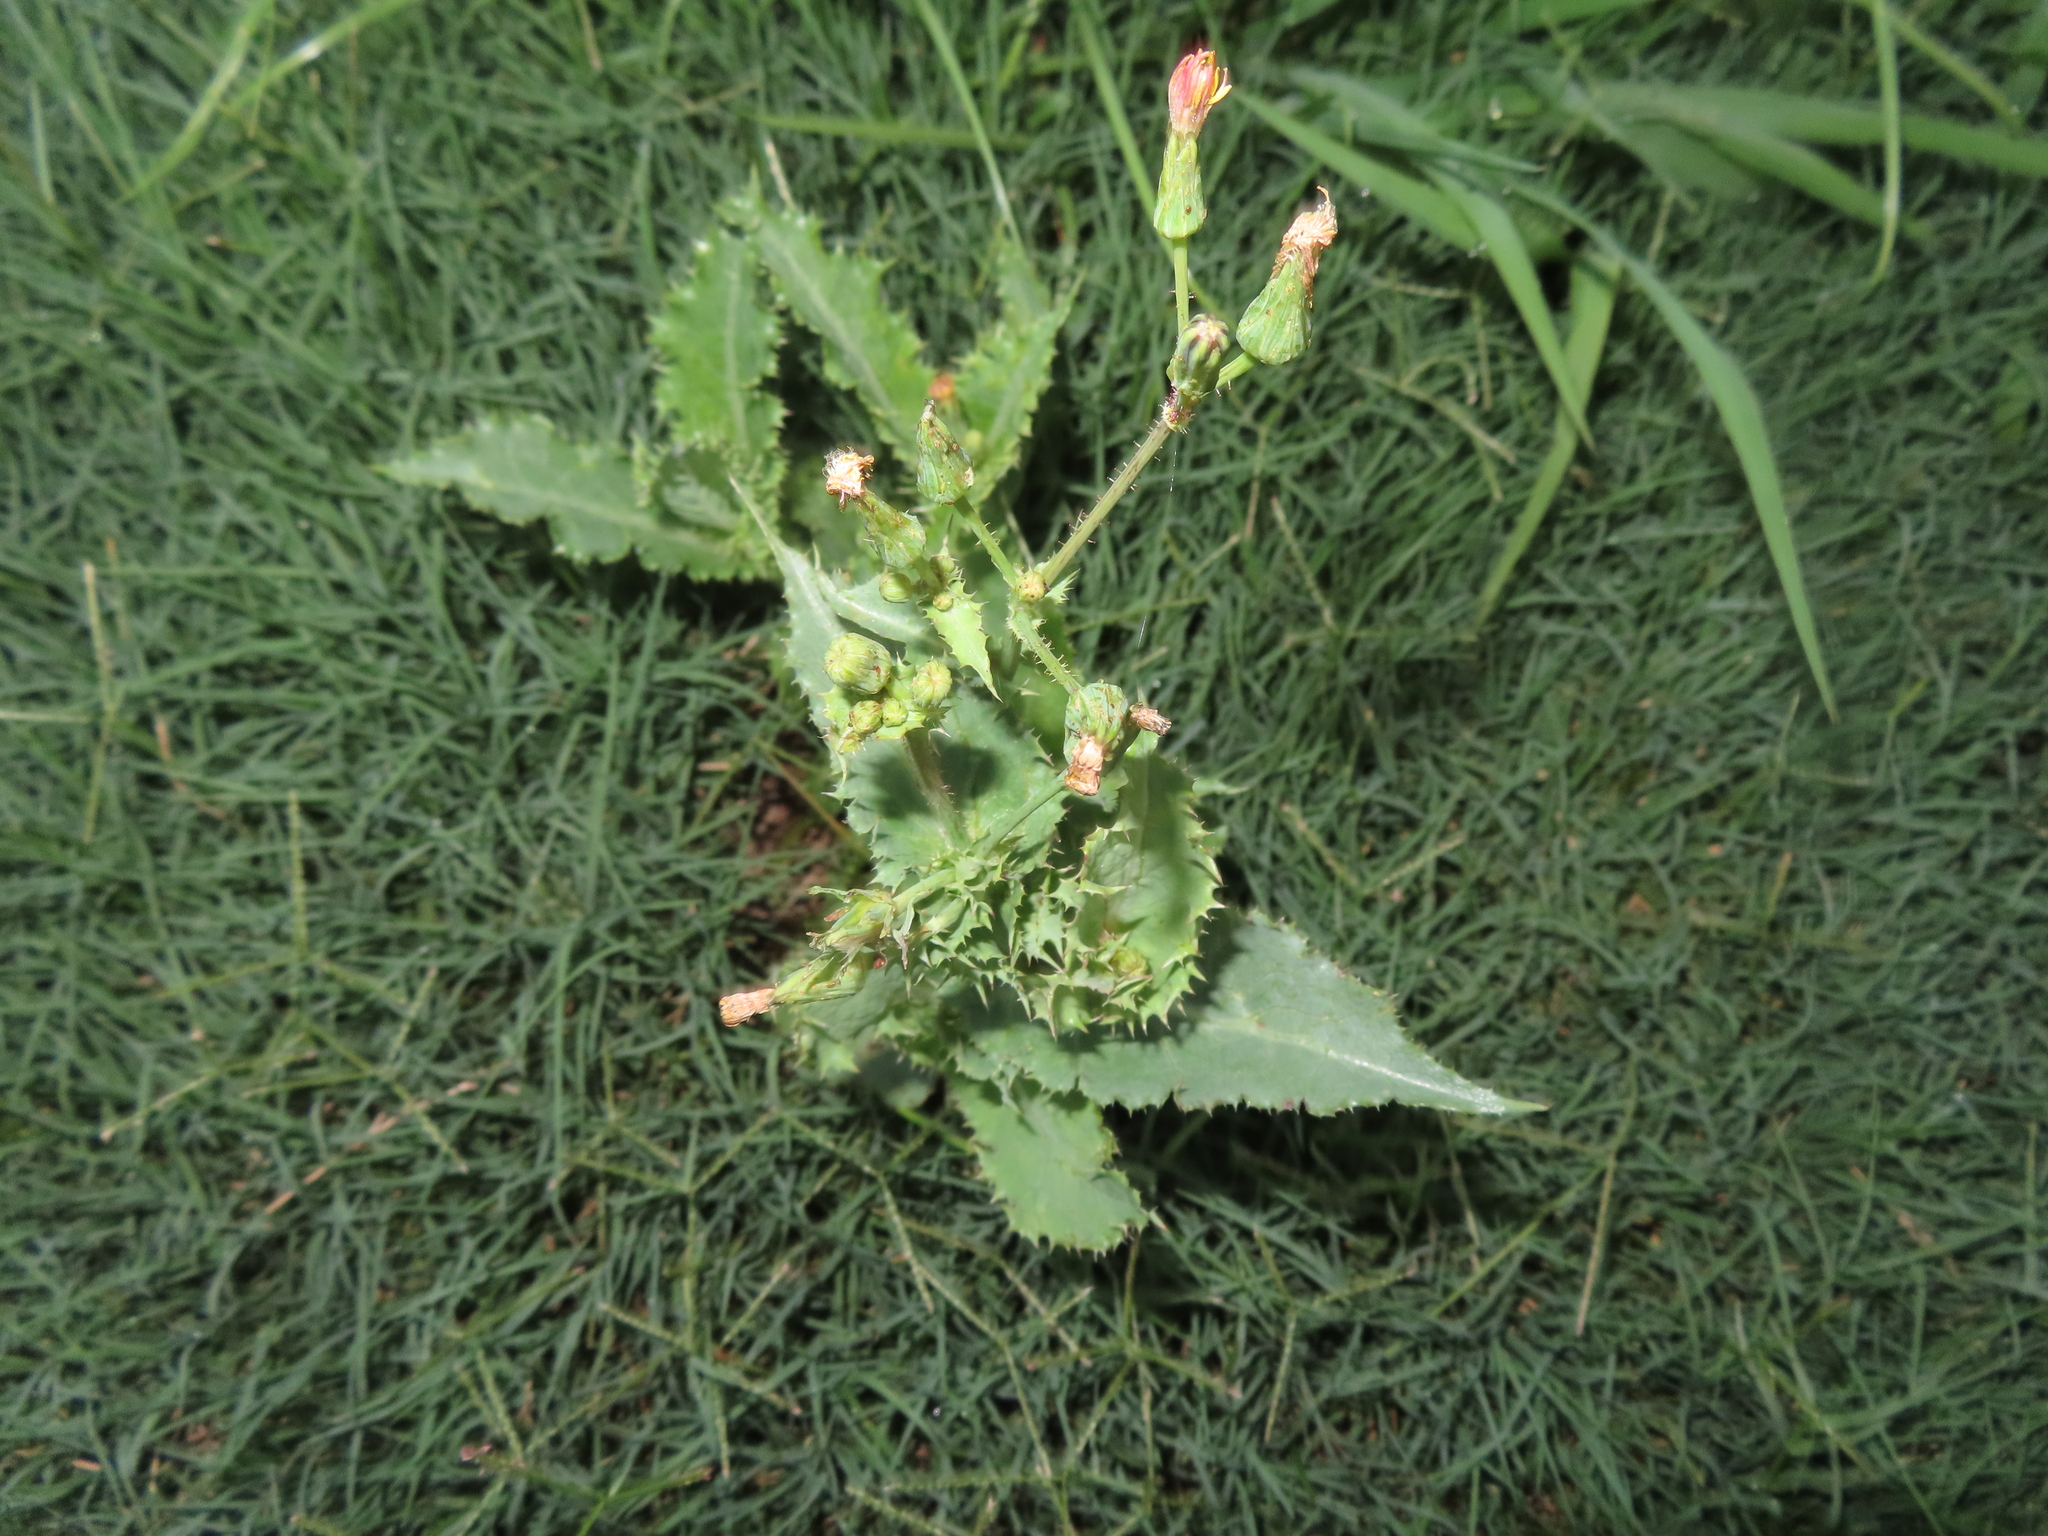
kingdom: Plantae
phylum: Tracheophyta
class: Magnoliopsida
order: Asterales
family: Asteraceae
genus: Sonchus
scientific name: Sonchus asper
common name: Prickly sow-thistle
